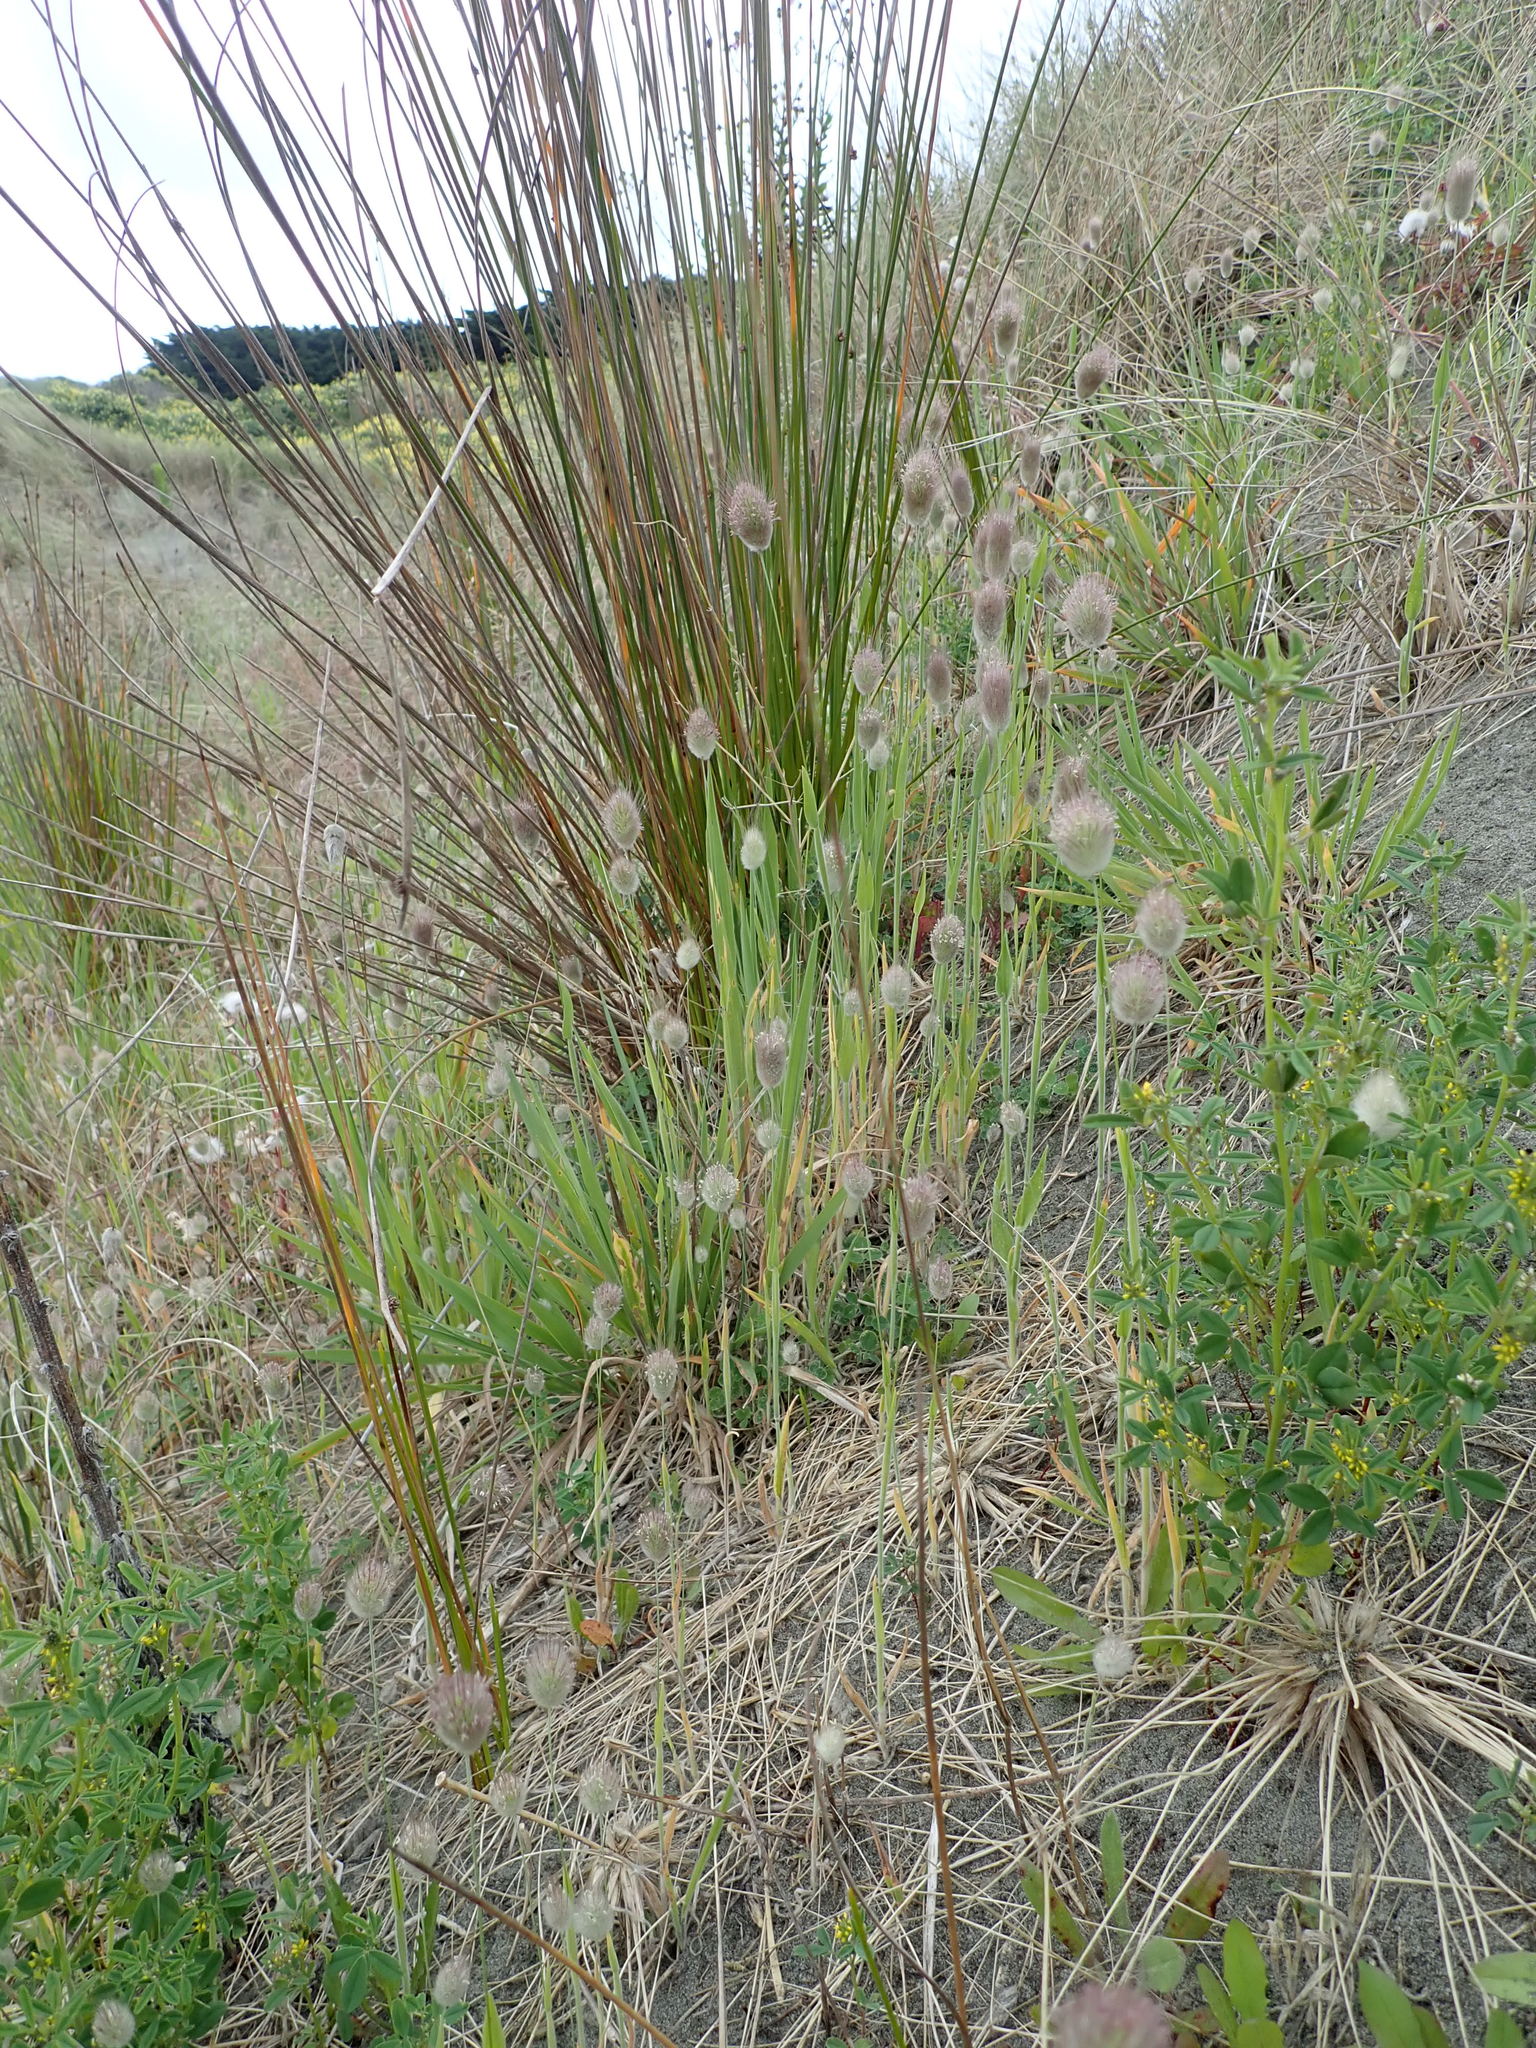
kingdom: Plantae
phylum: Tracheophyta
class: Liliopsida
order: Poales
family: Poaceae
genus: Lagurus
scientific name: Lagurus ovatus
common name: Hare's-tail
